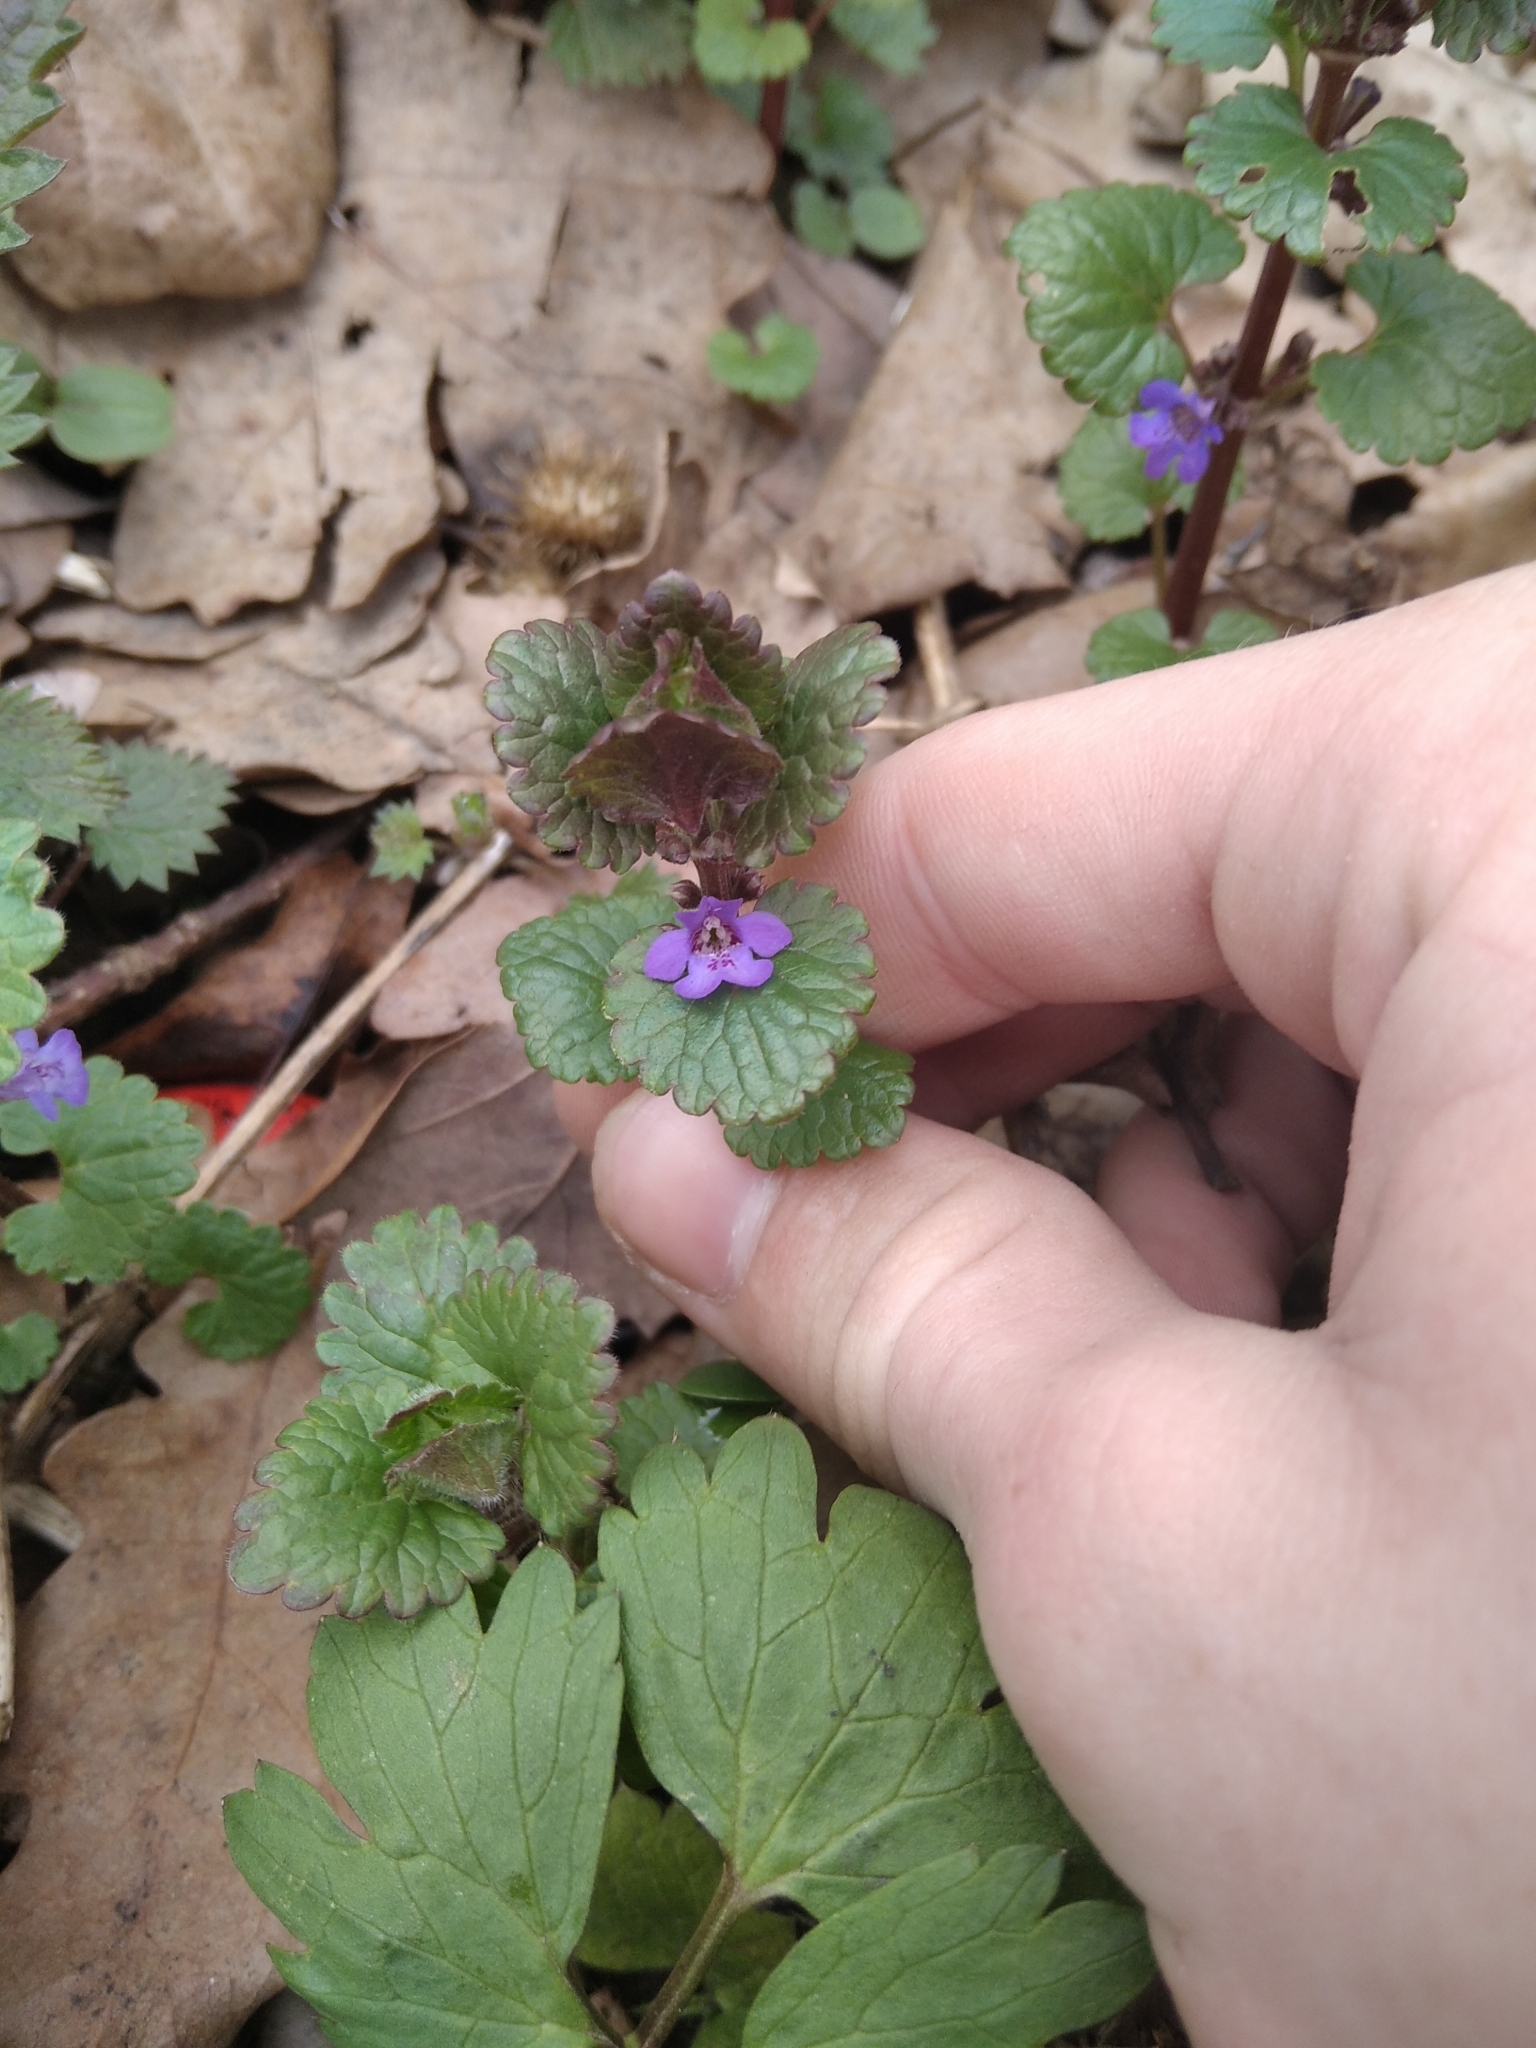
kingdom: Plantae
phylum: Tracheophyta
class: Magnoliopsida
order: Lamiales
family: Lamiaceae
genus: Glechoma
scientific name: Glechoma hederacea
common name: Ground ivy
